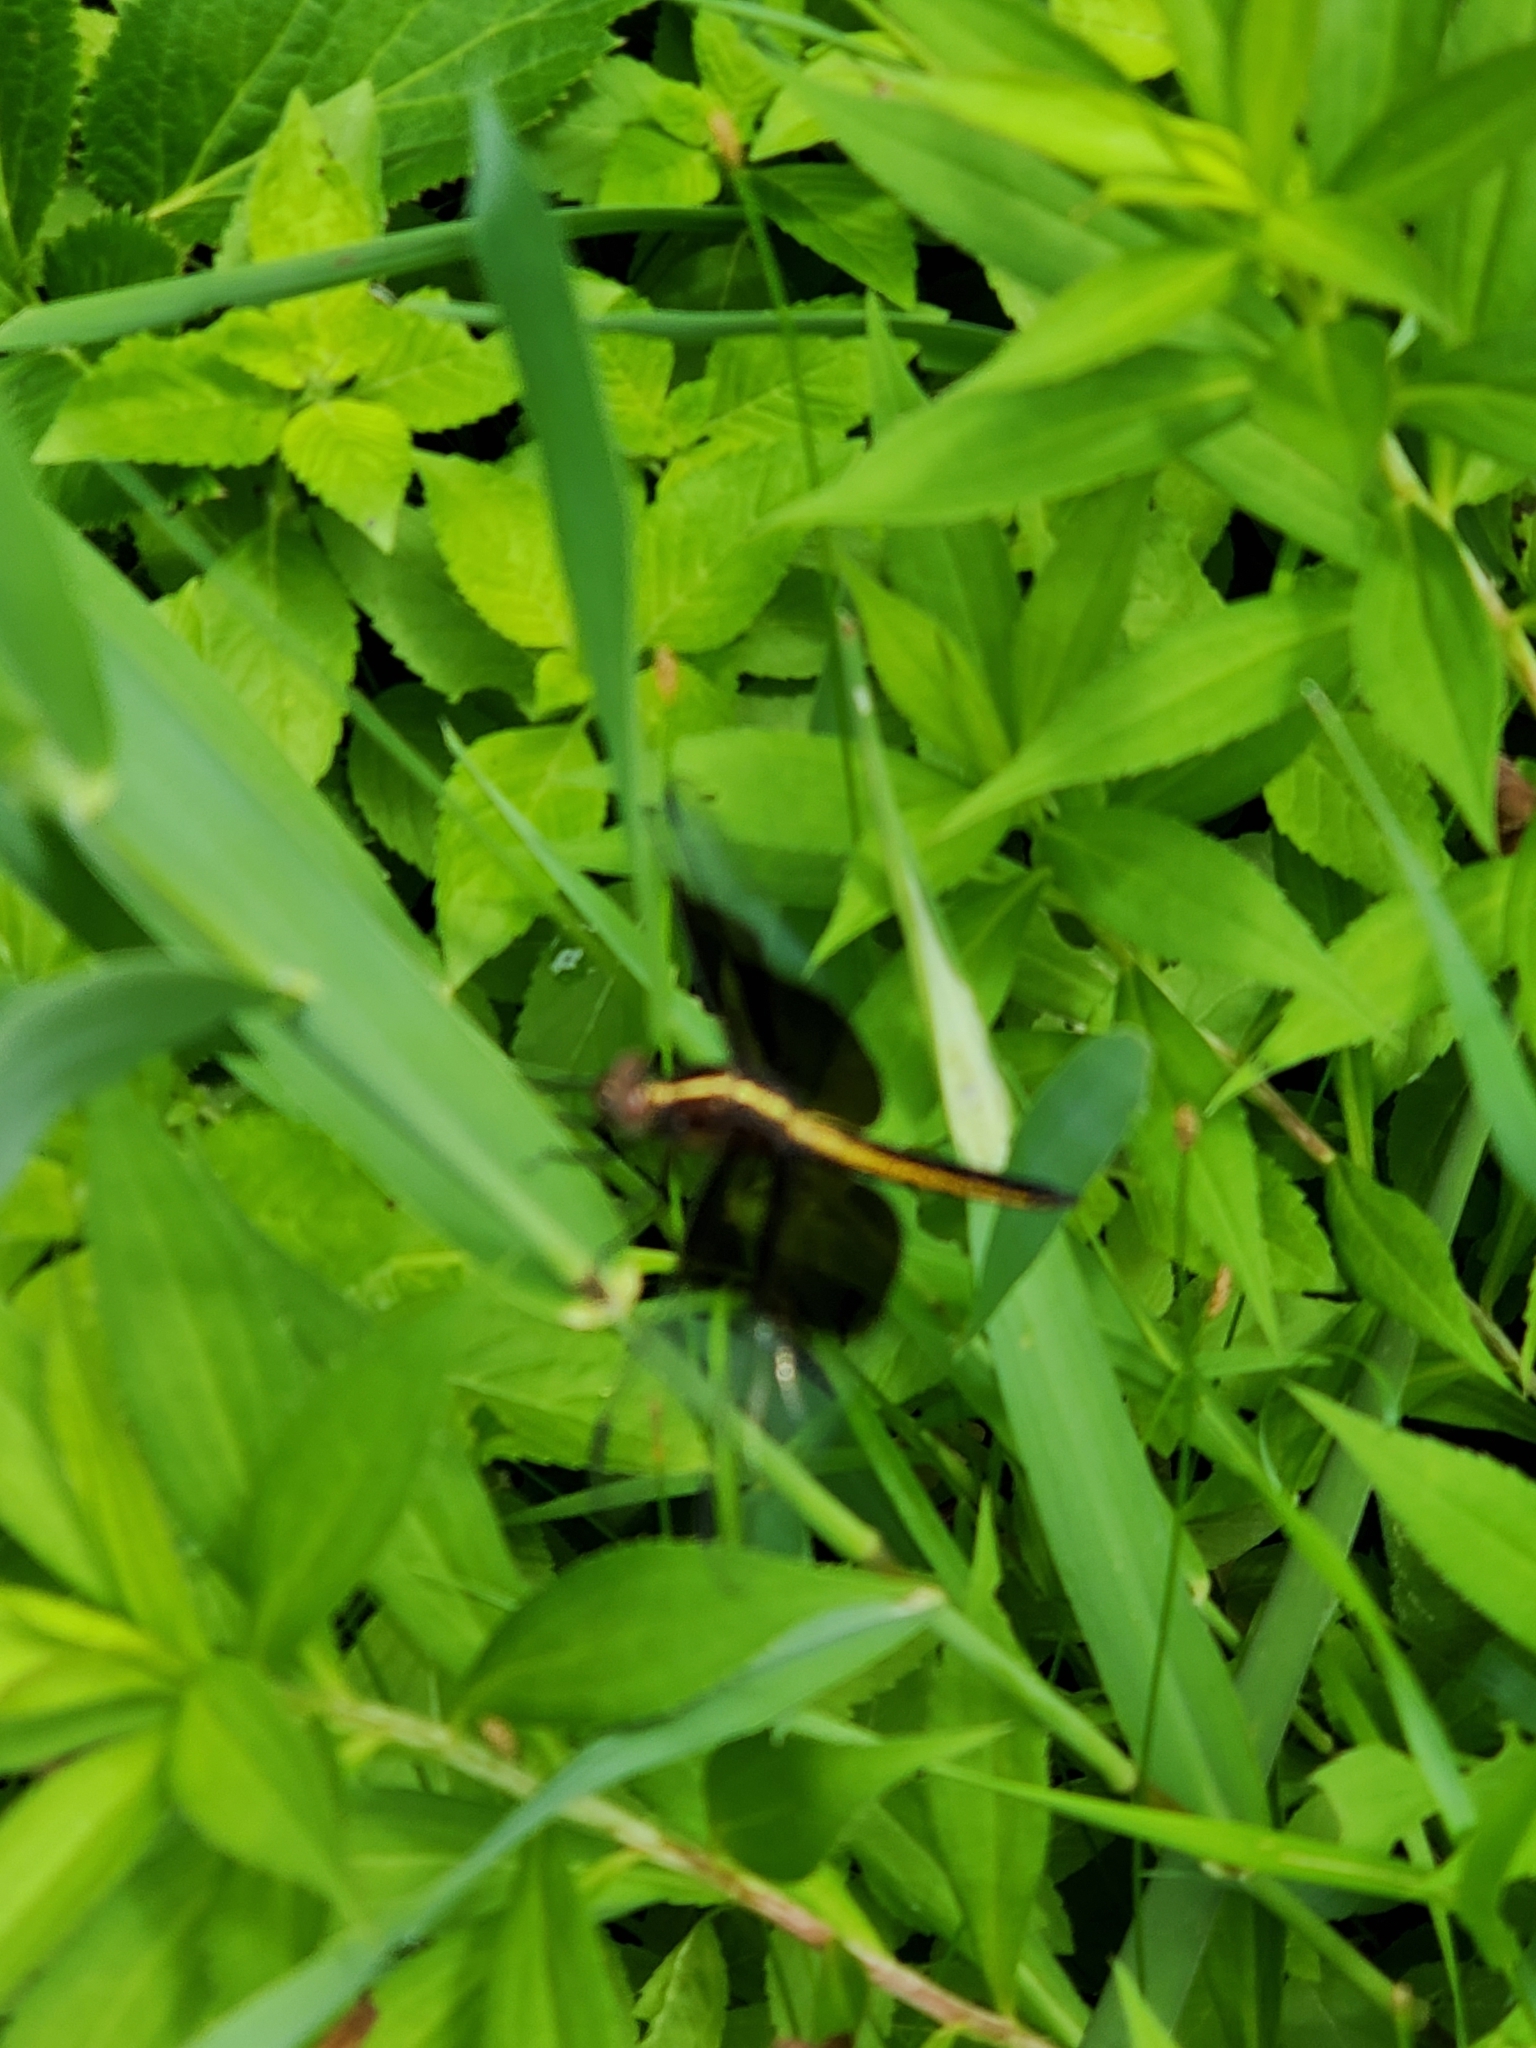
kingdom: Animalia
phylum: Arthropoda
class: Insecta
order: Odonata
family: Libellulidae
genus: Libellula
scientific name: Libellula luctuosa
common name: Widow skimmer
